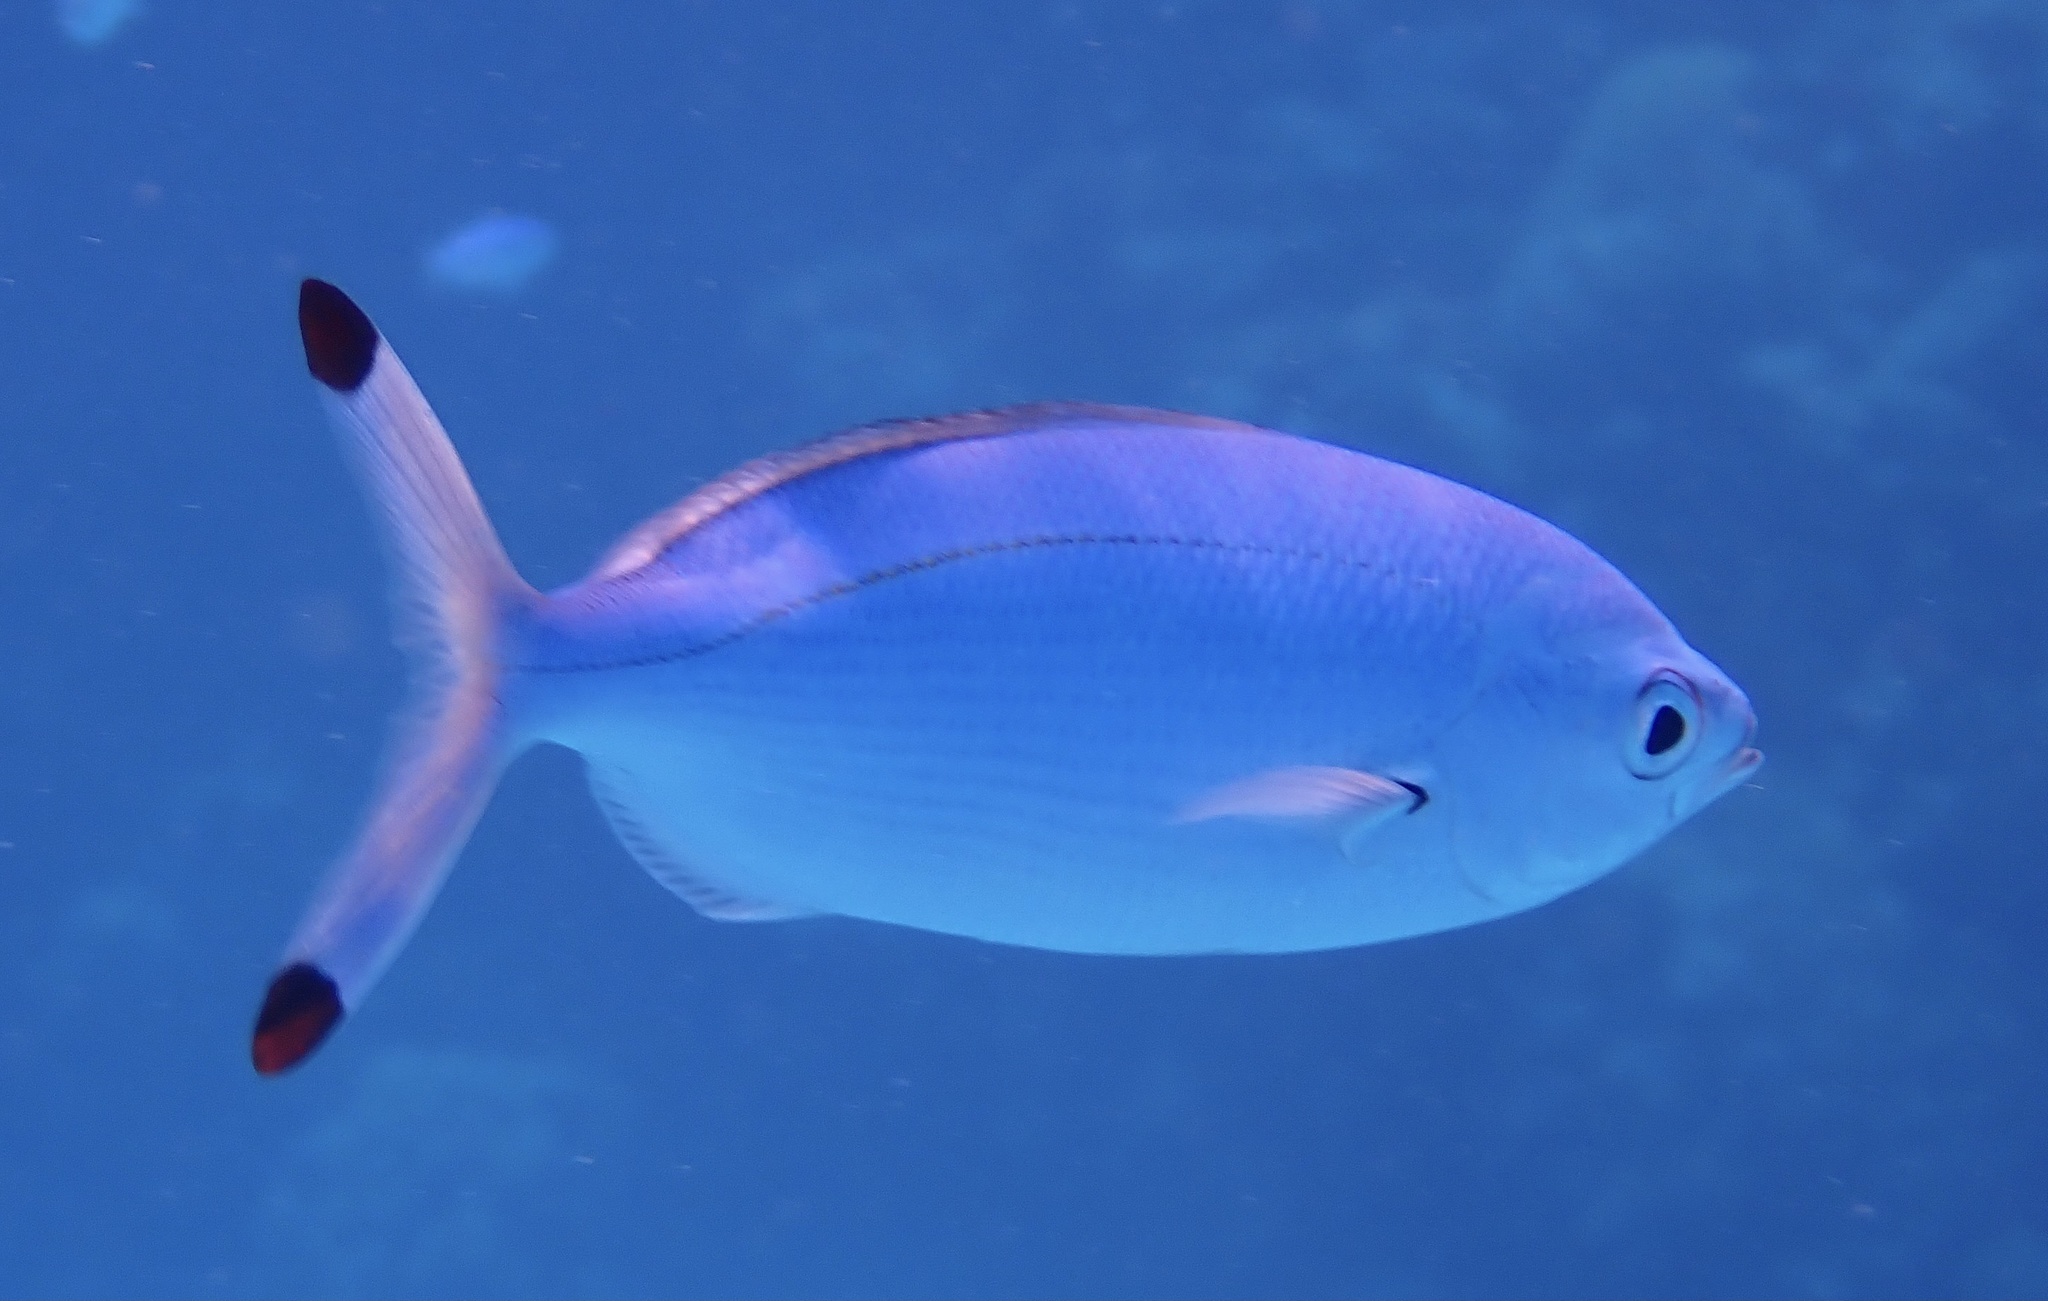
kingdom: Animalia
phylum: Chordata
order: Perciformes
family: Caesionidae
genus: Caesio
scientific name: Caesio lunaris
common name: Blue fusilier
